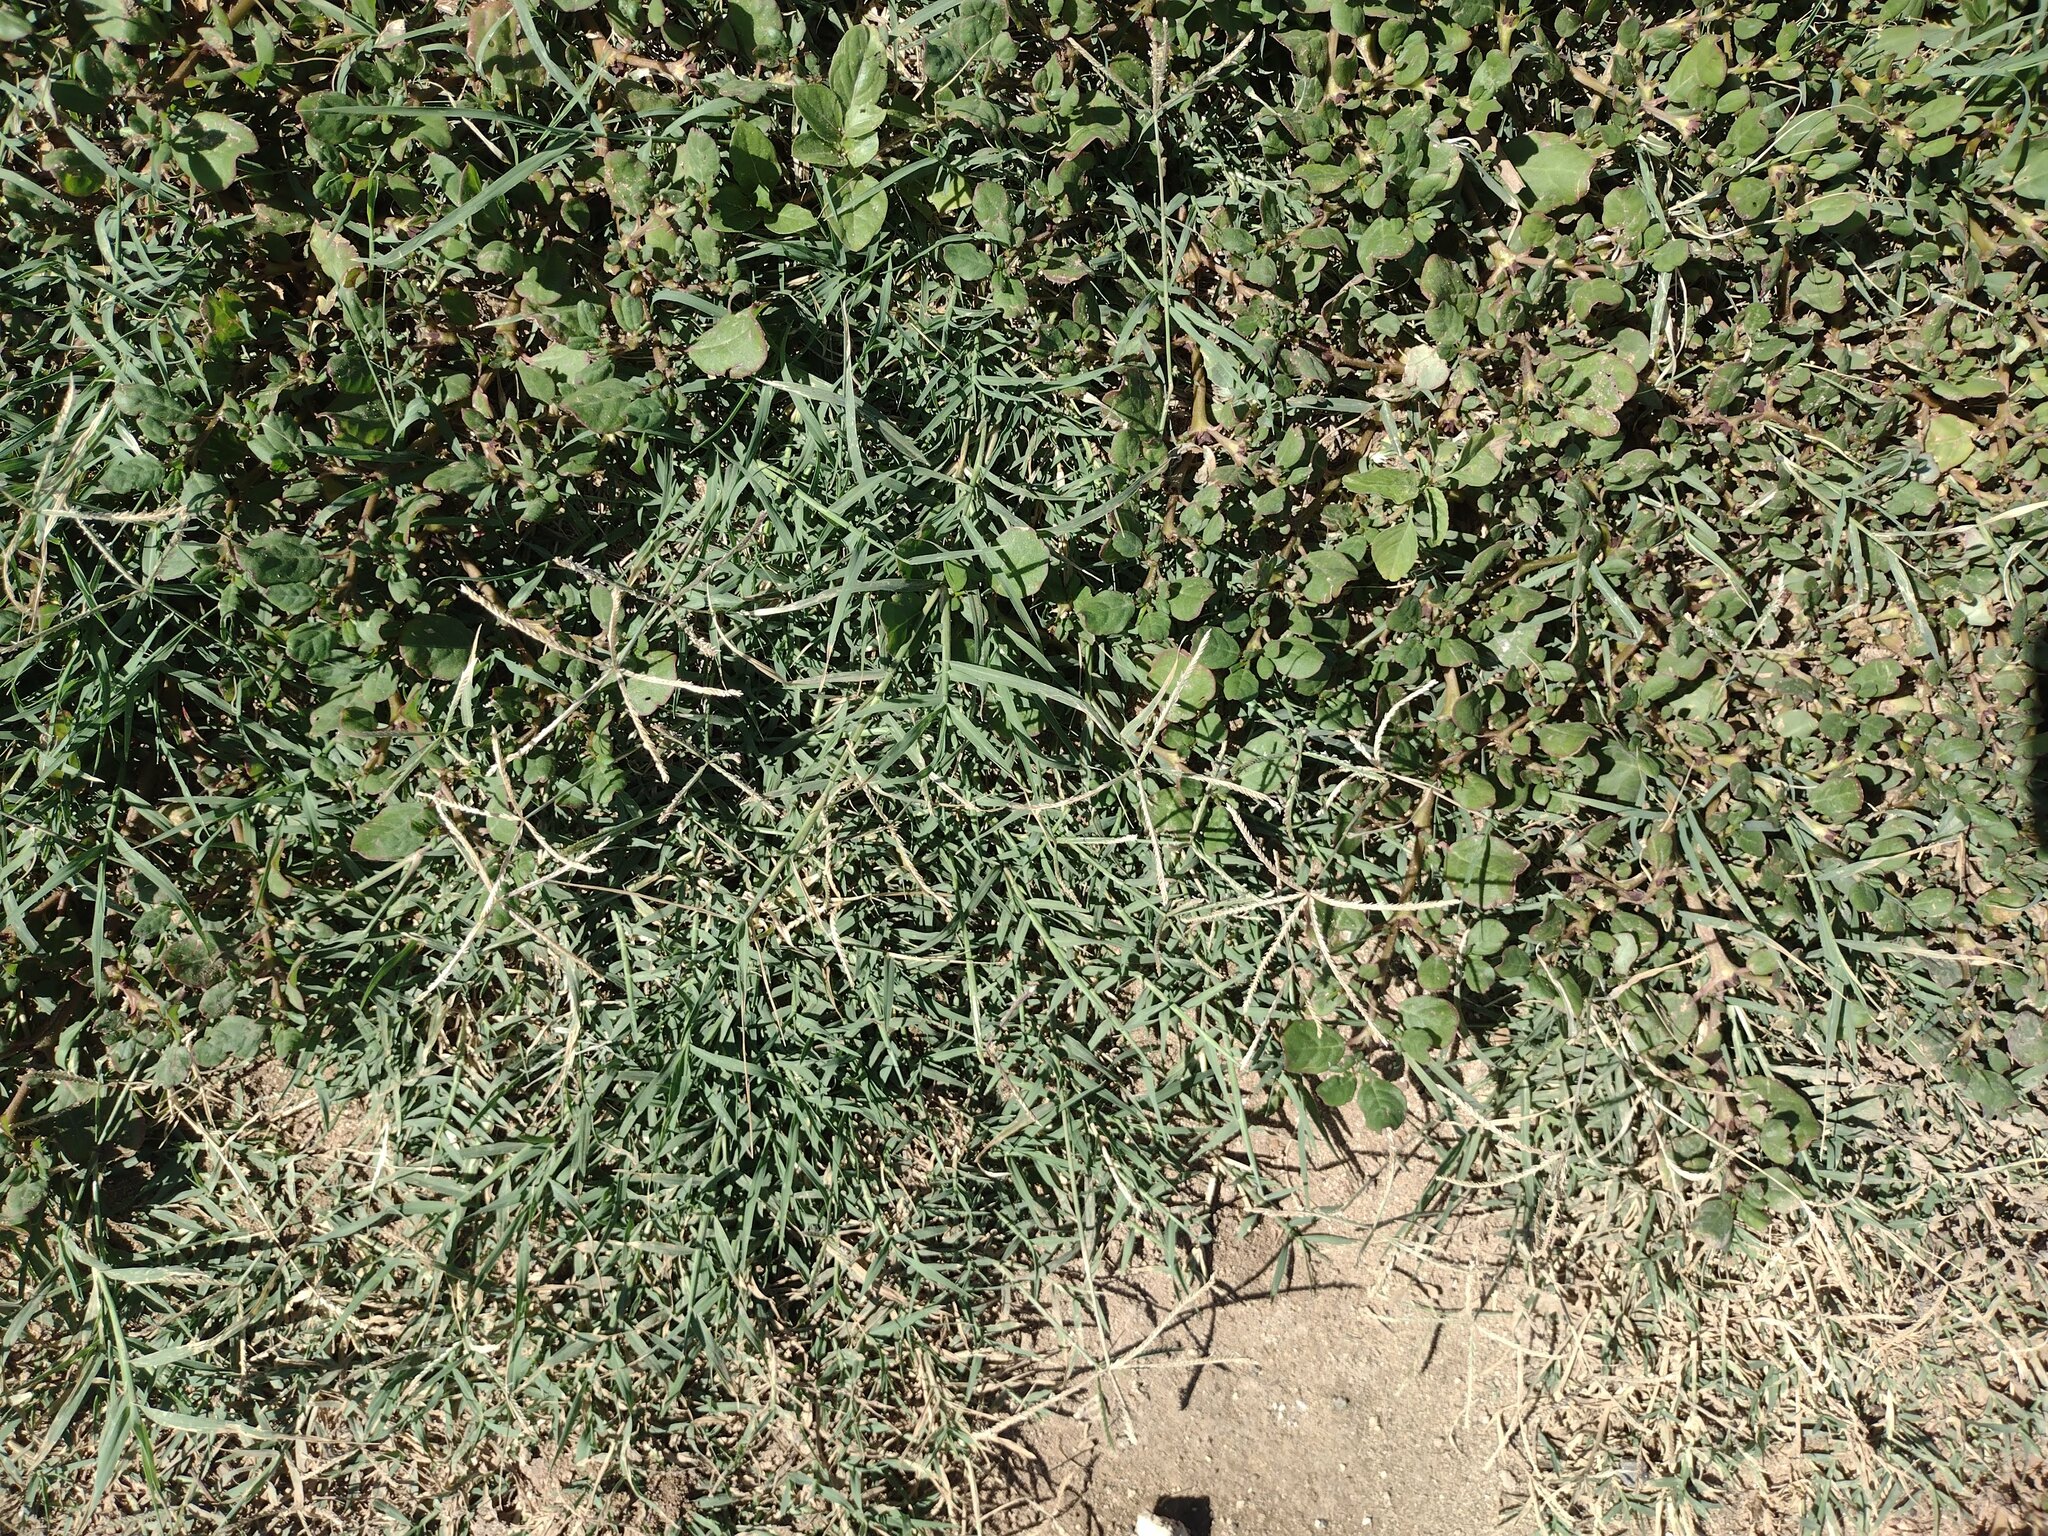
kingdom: Plantae
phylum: Tracheophyta
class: Liliopsida
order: Poales
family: Poaceae
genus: Cynodon
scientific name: Cynodon nlemfuensis
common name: African bermudagrass
